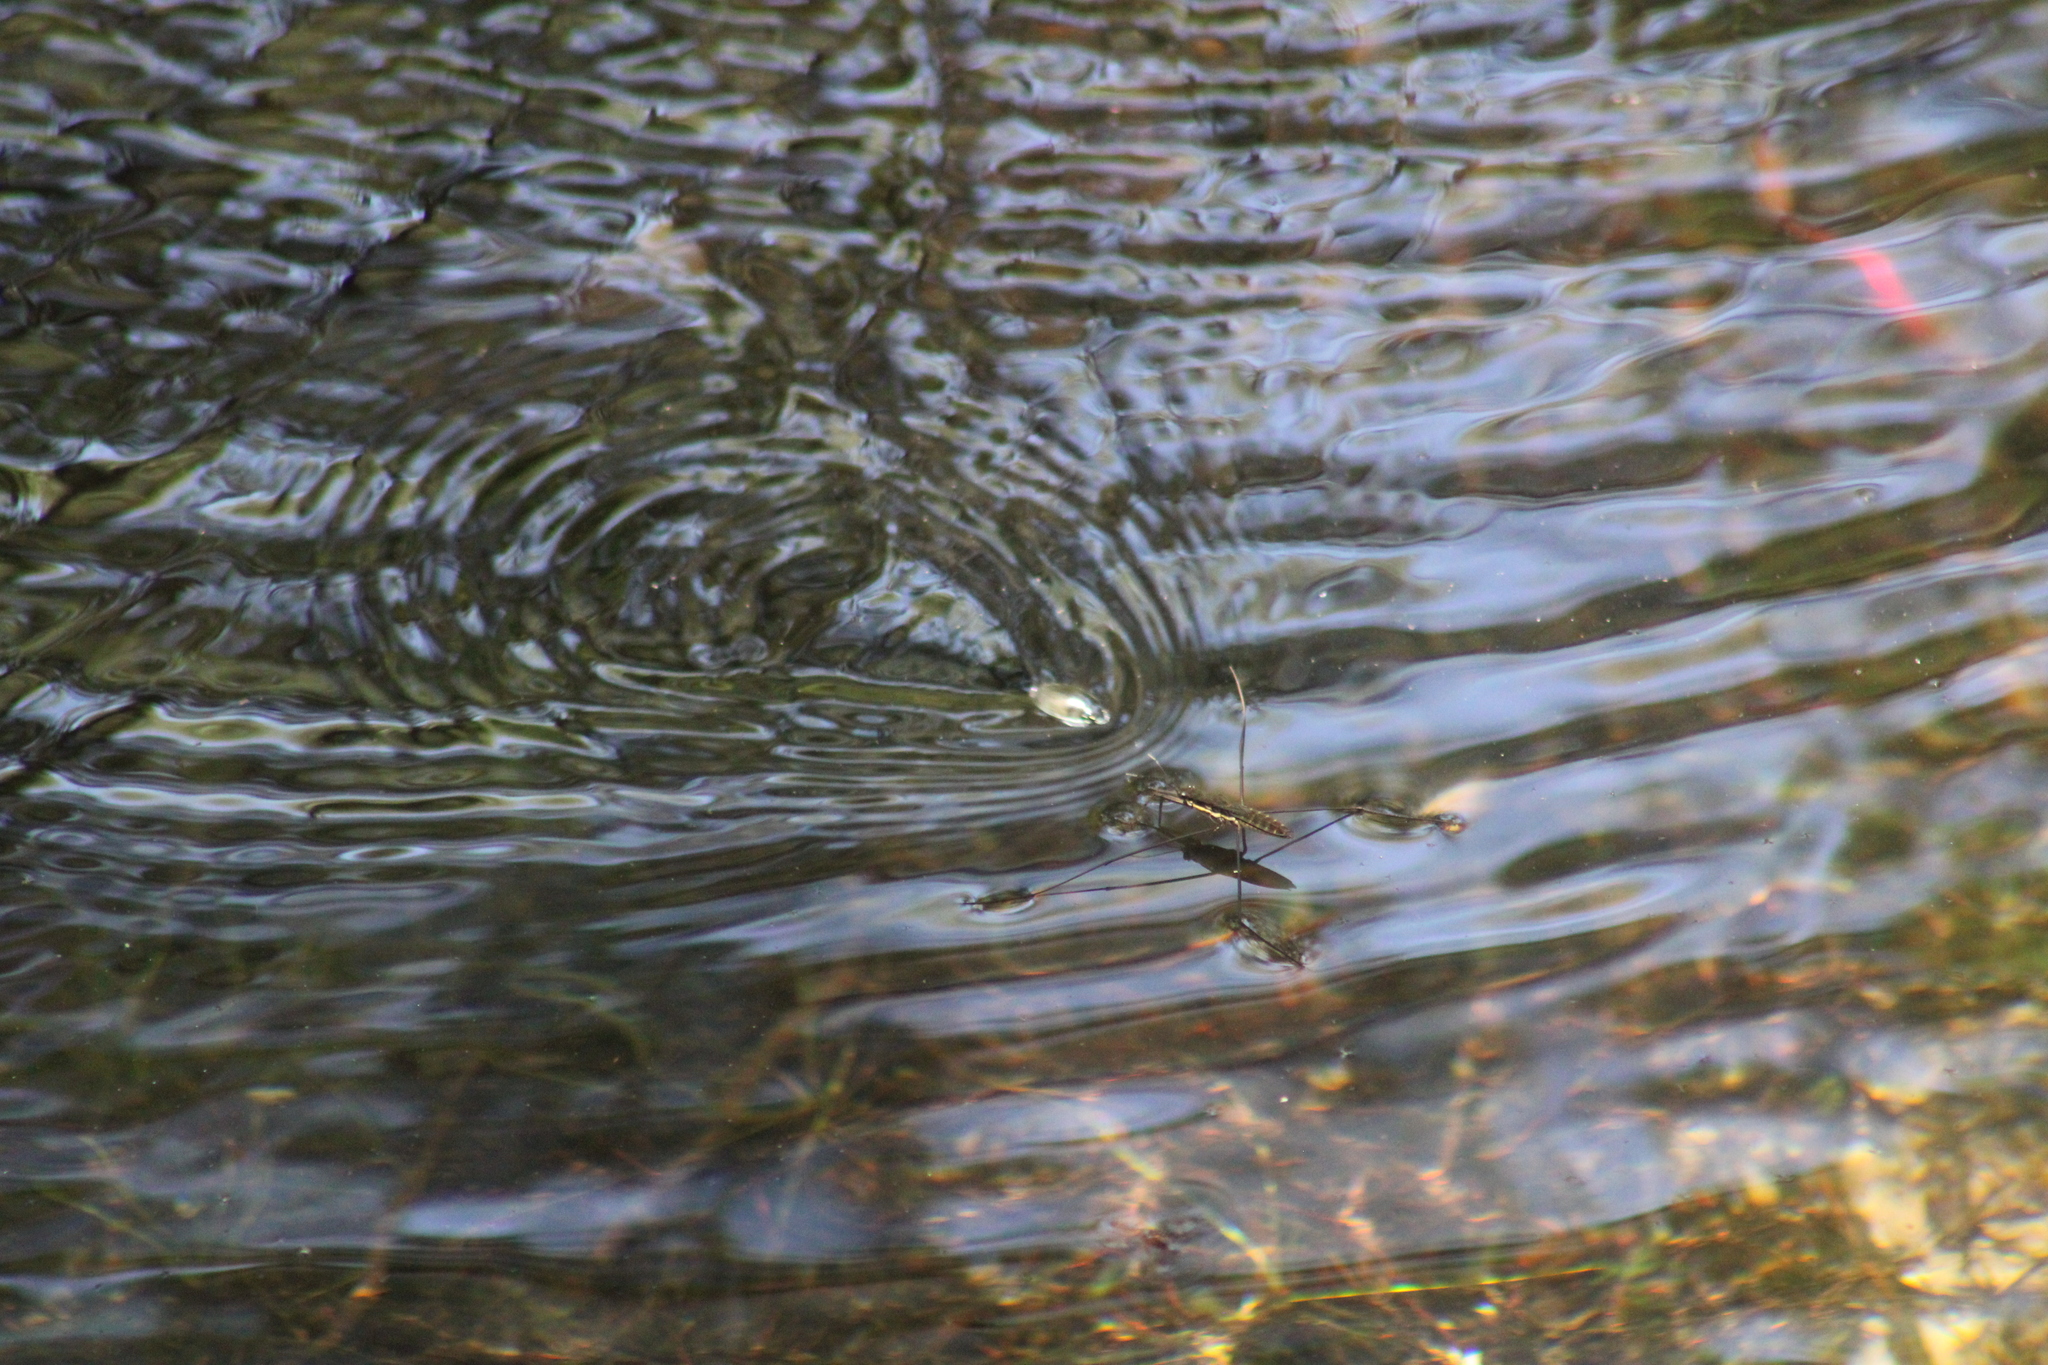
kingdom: Animalia
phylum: Arthropoda
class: Insecta
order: Coleoptera
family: Gyrinidae
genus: Dineutus
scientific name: Dineutus
